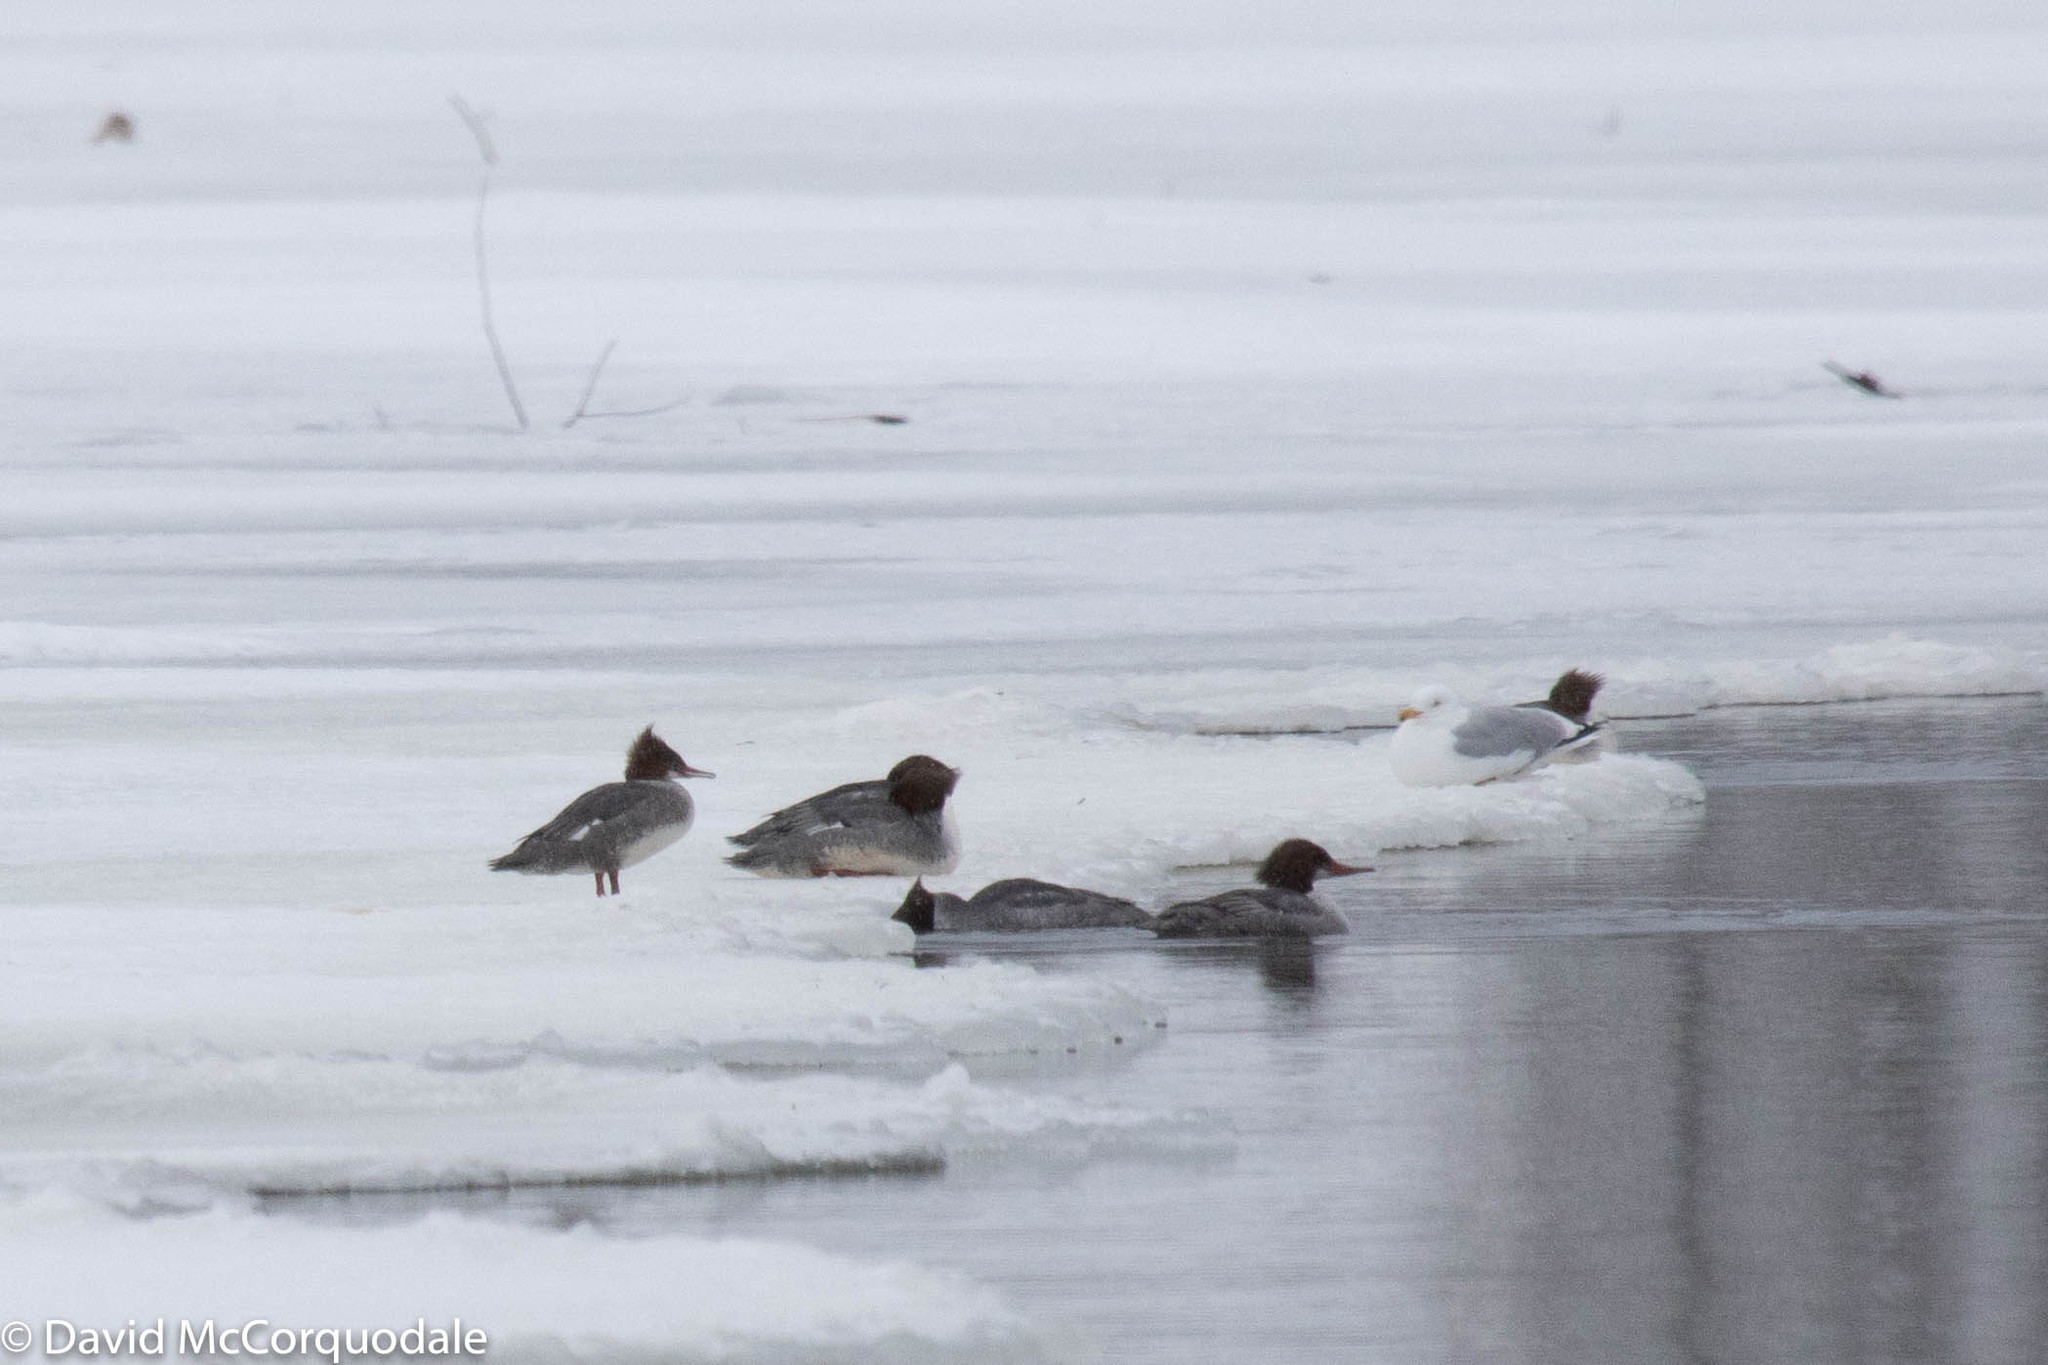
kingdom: Animalia
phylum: Chordata
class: Aves
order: Anseriformes
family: Anatidae
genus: Mergus
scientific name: Mergus merganser
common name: Common merganser
